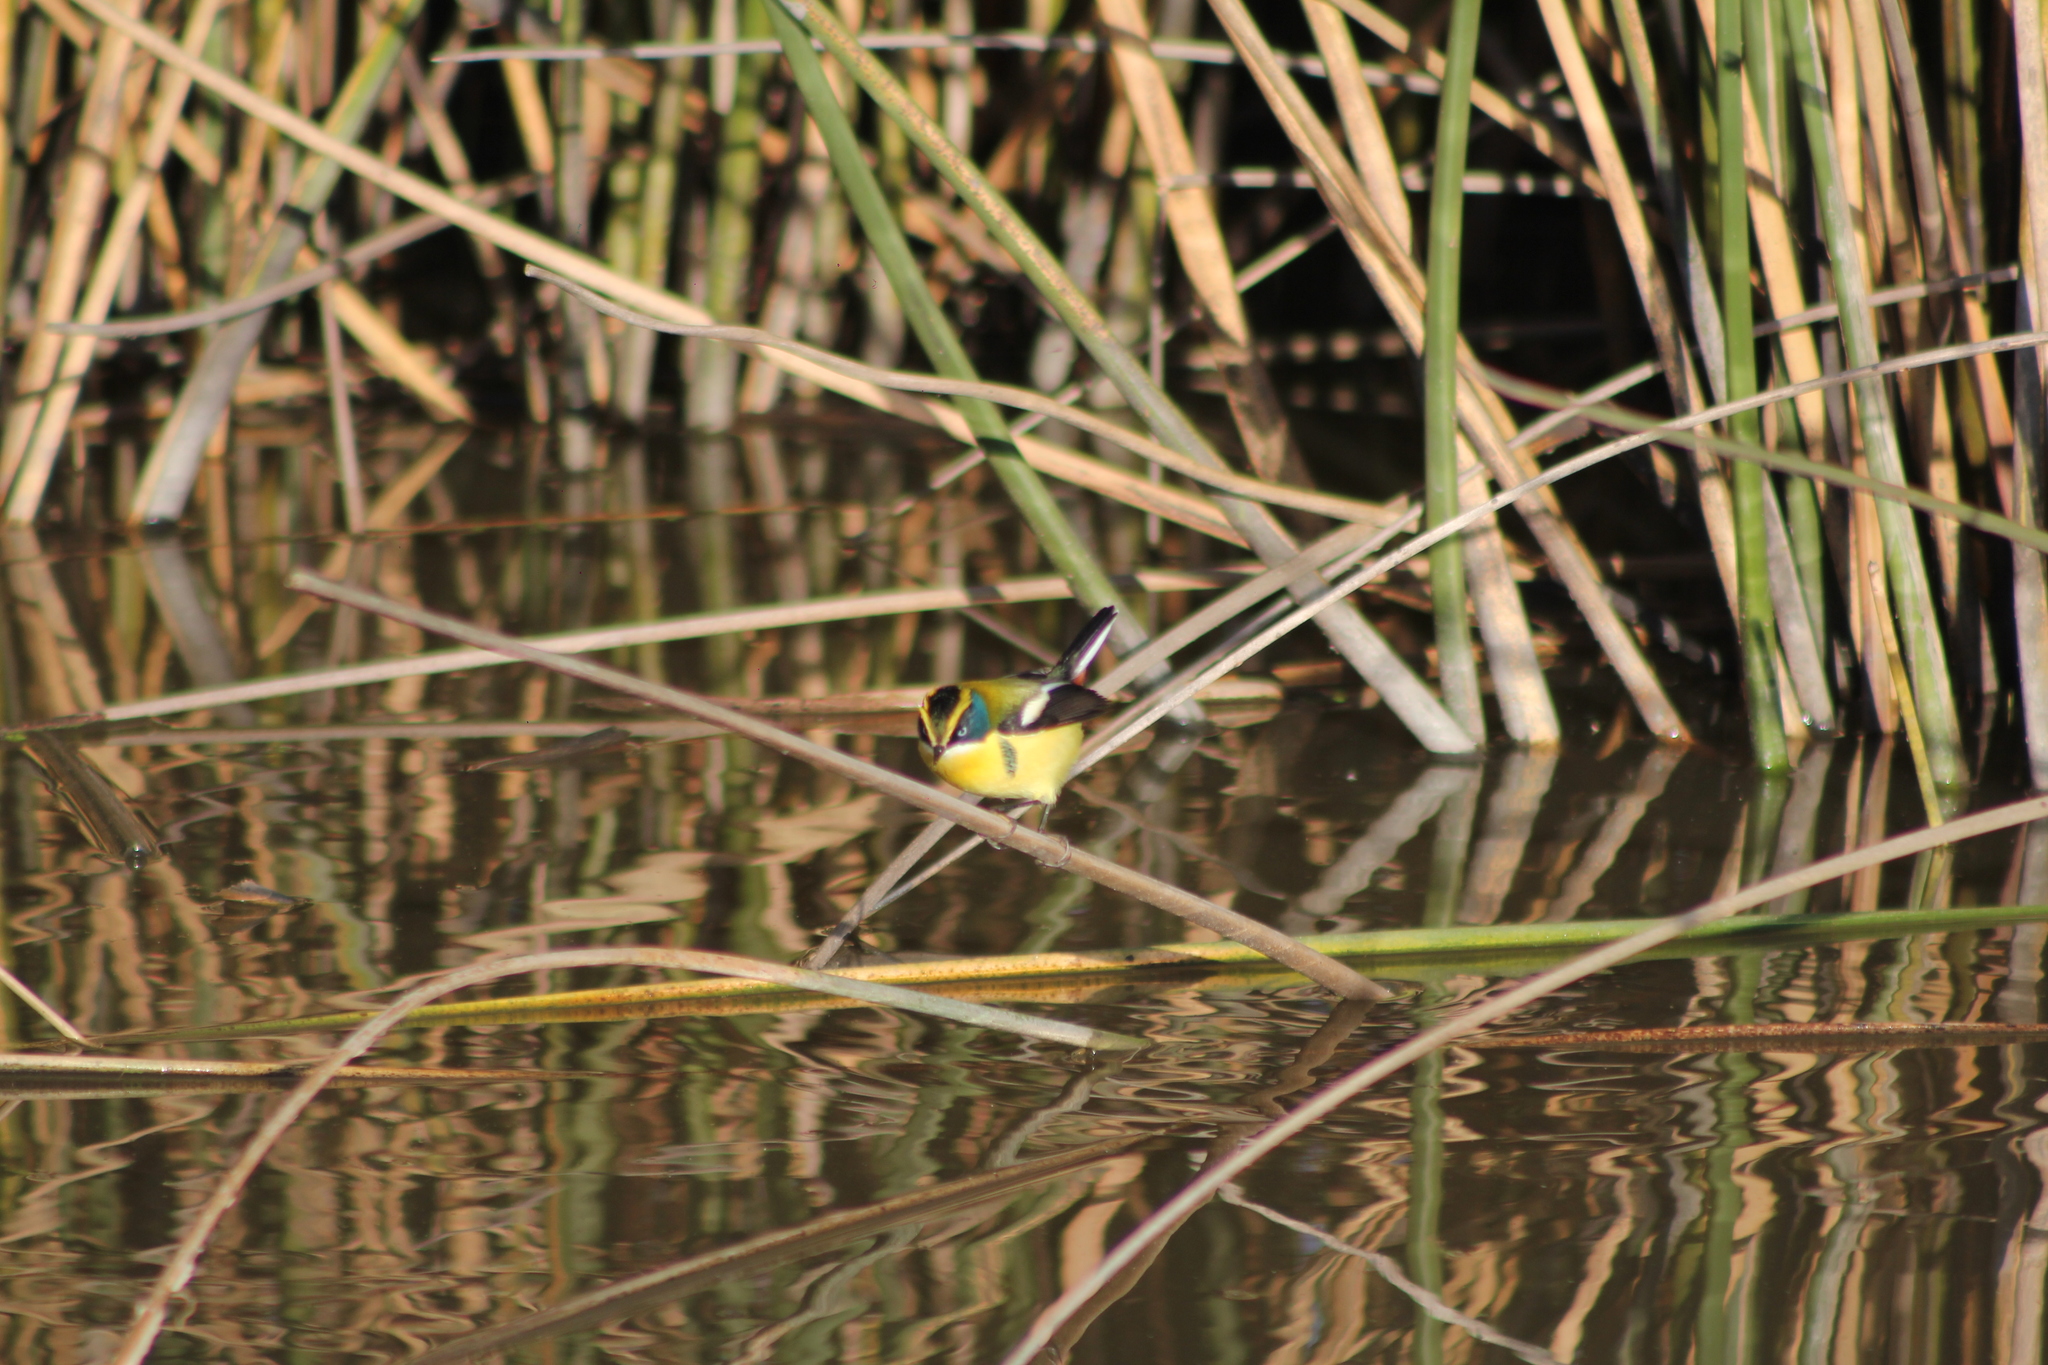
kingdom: Animalia
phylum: Chordata
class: Aves
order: Passeriformes
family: Tyrannidae
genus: Tachuris
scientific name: Tachuris rubrigastra
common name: Many-colored rush tyrant
